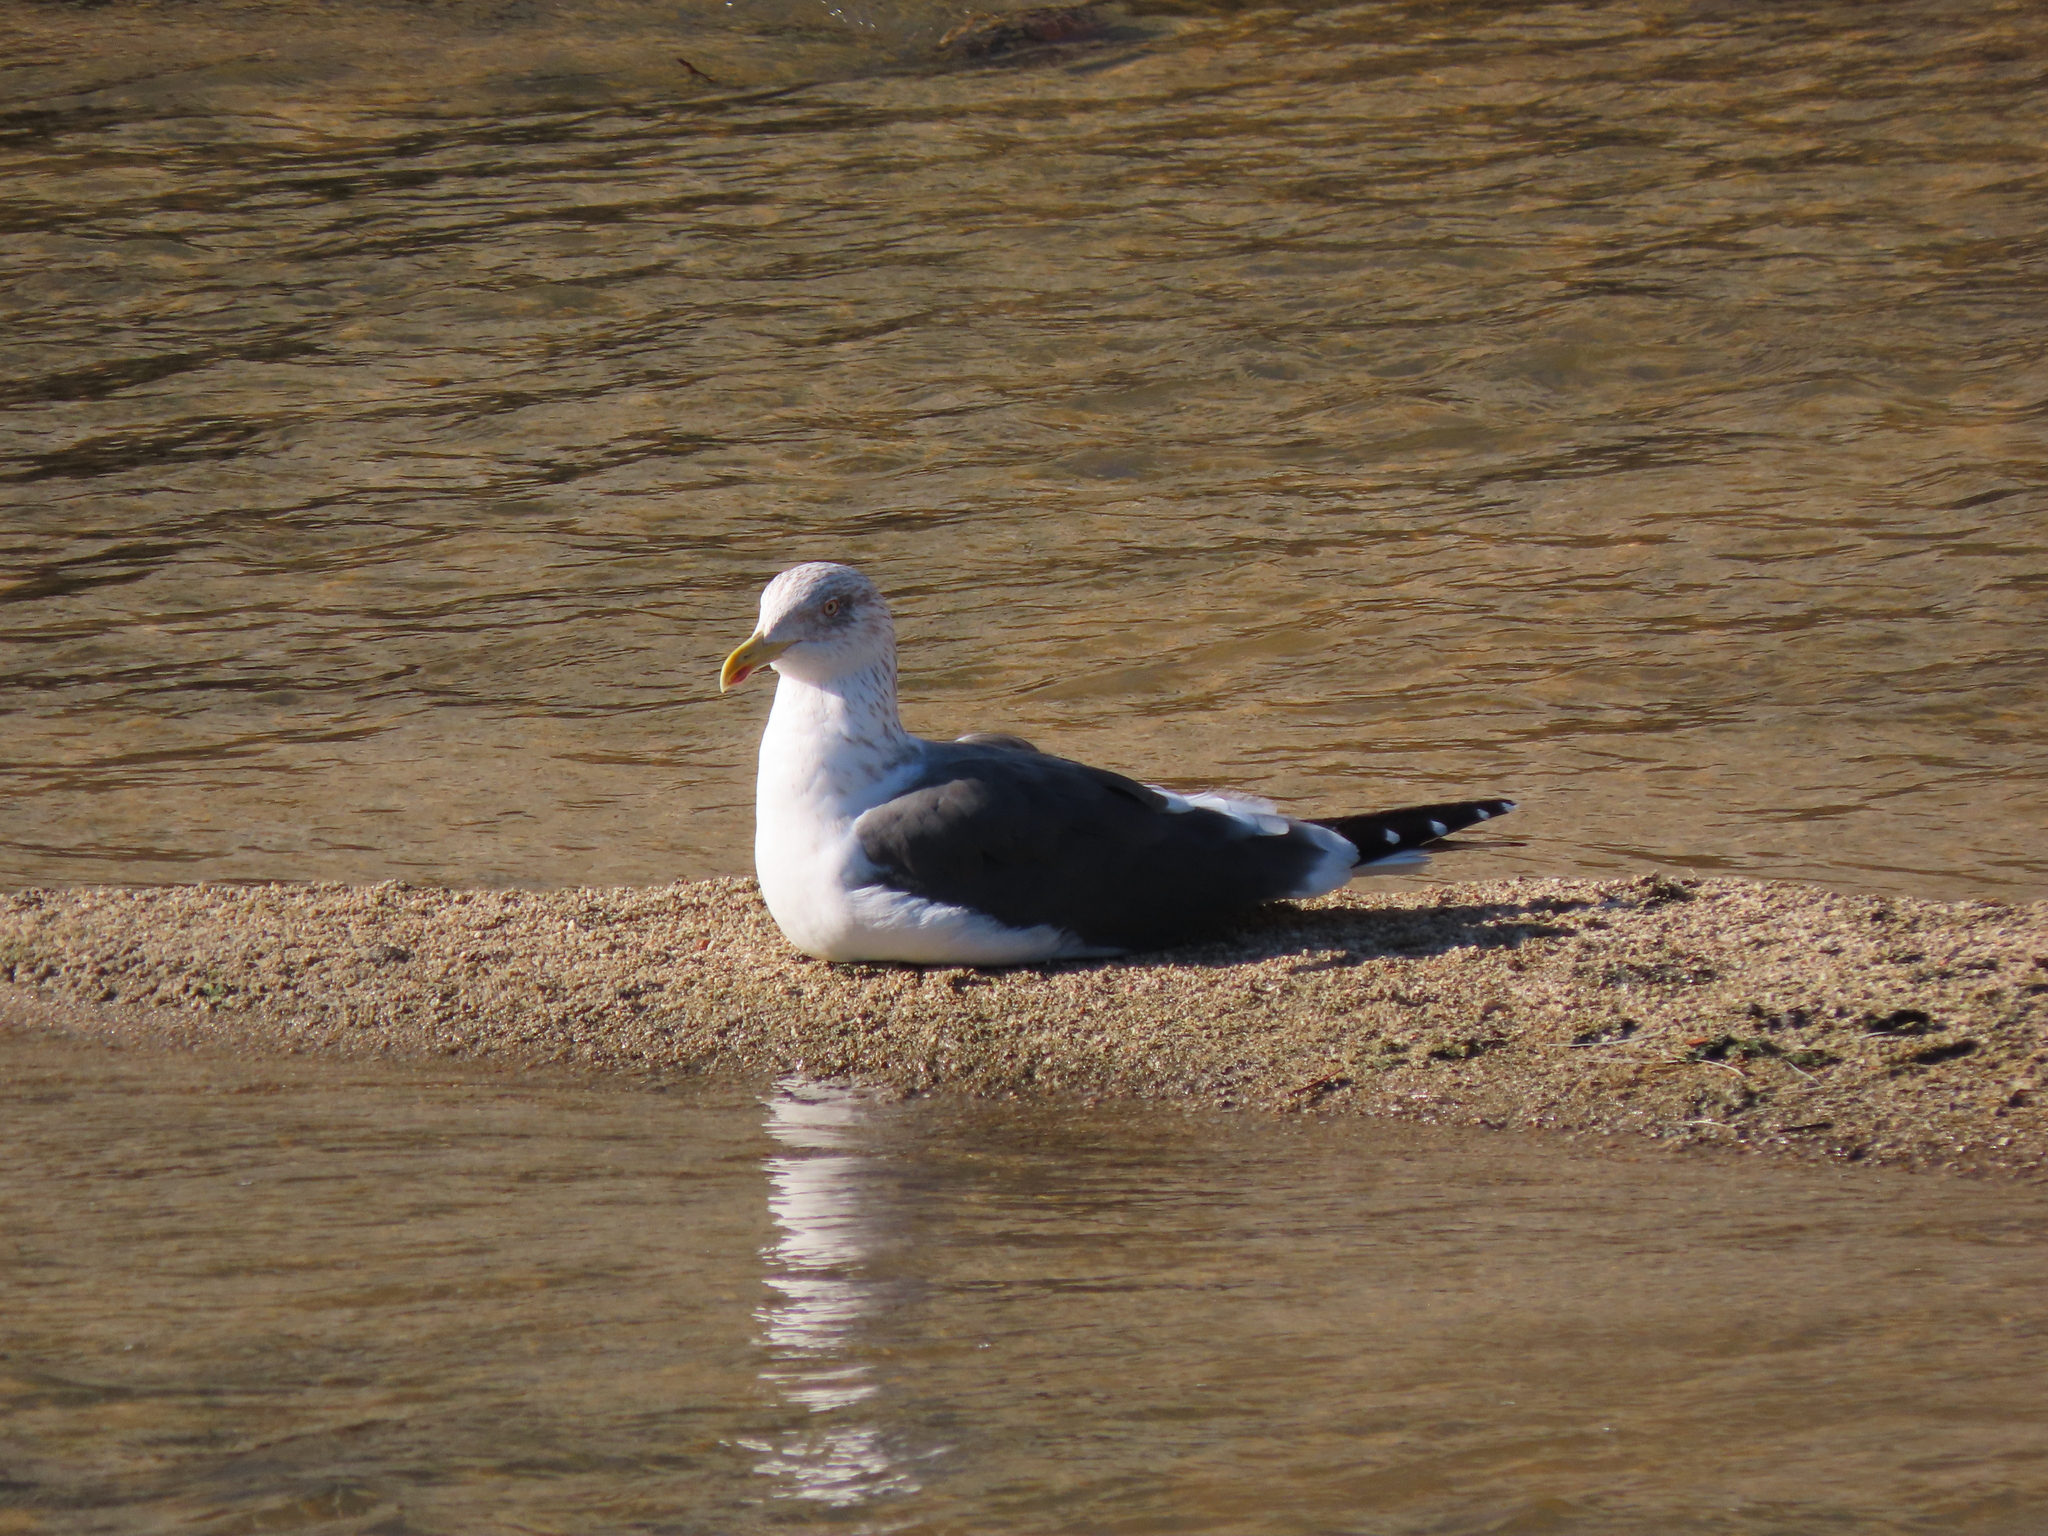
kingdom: Animalia
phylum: Chordata
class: Aves
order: Charadriiformes
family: Laridae
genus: Larus
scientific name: Larus fuscus
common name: Lesser black-backed gull
